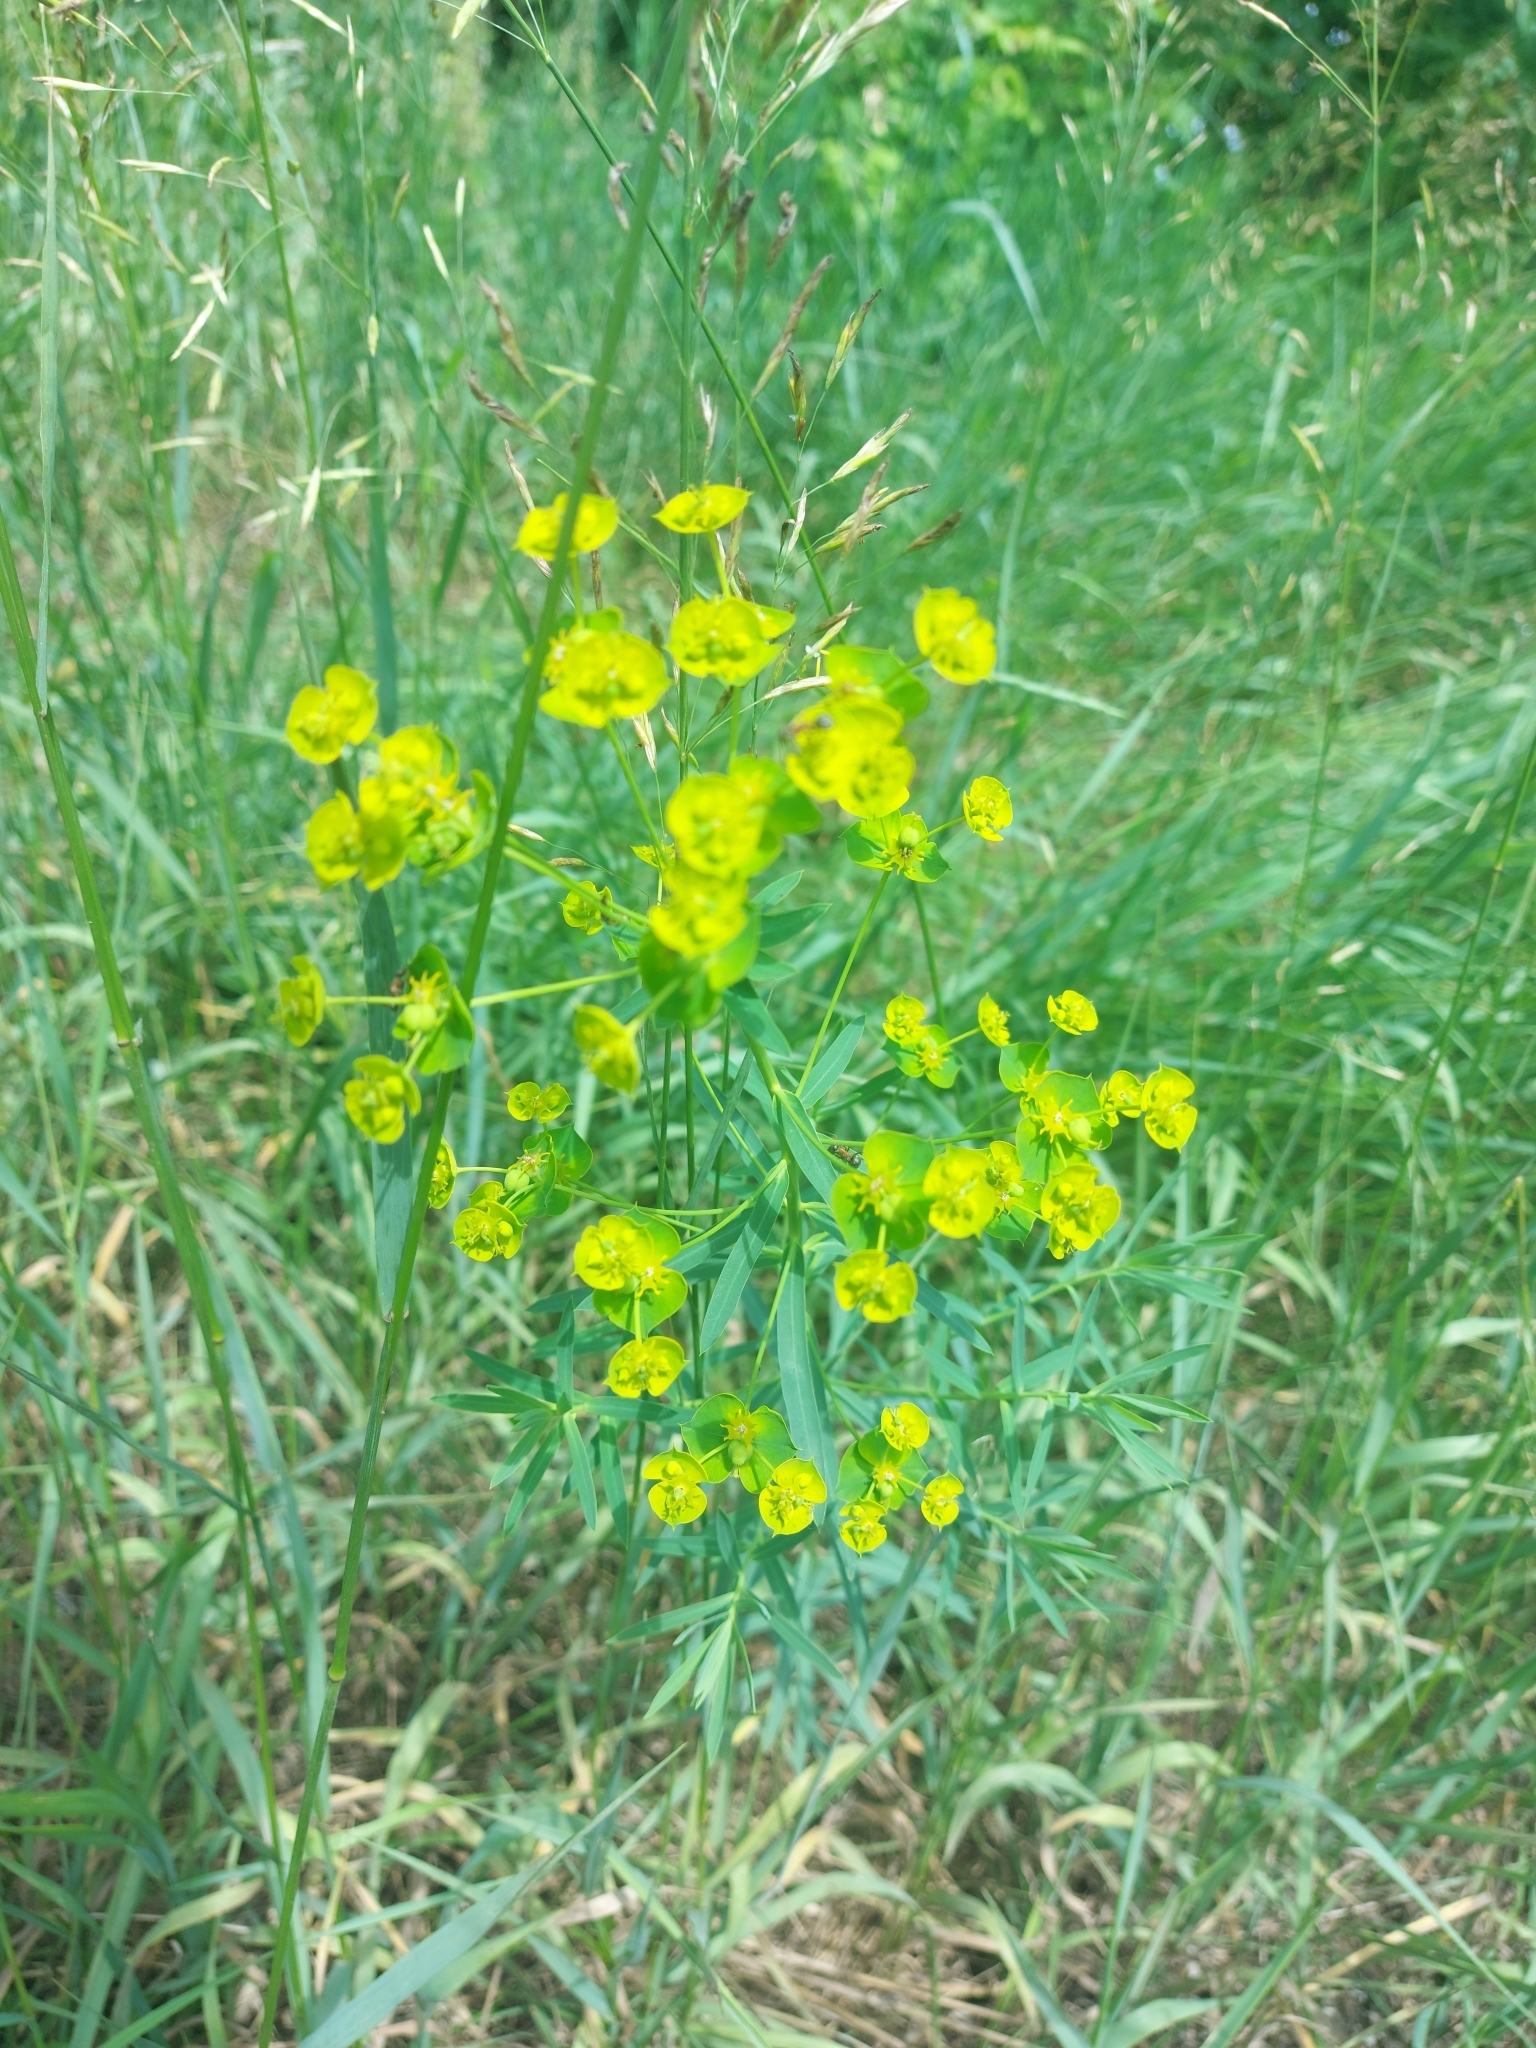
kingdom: Plantae
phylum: Tracheophyta
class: Magnoliopsida
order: Malpighiales
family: Euphorbiaceae
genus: Euphorbia
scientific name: Euphorbia virgata
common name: Leafy spurge
